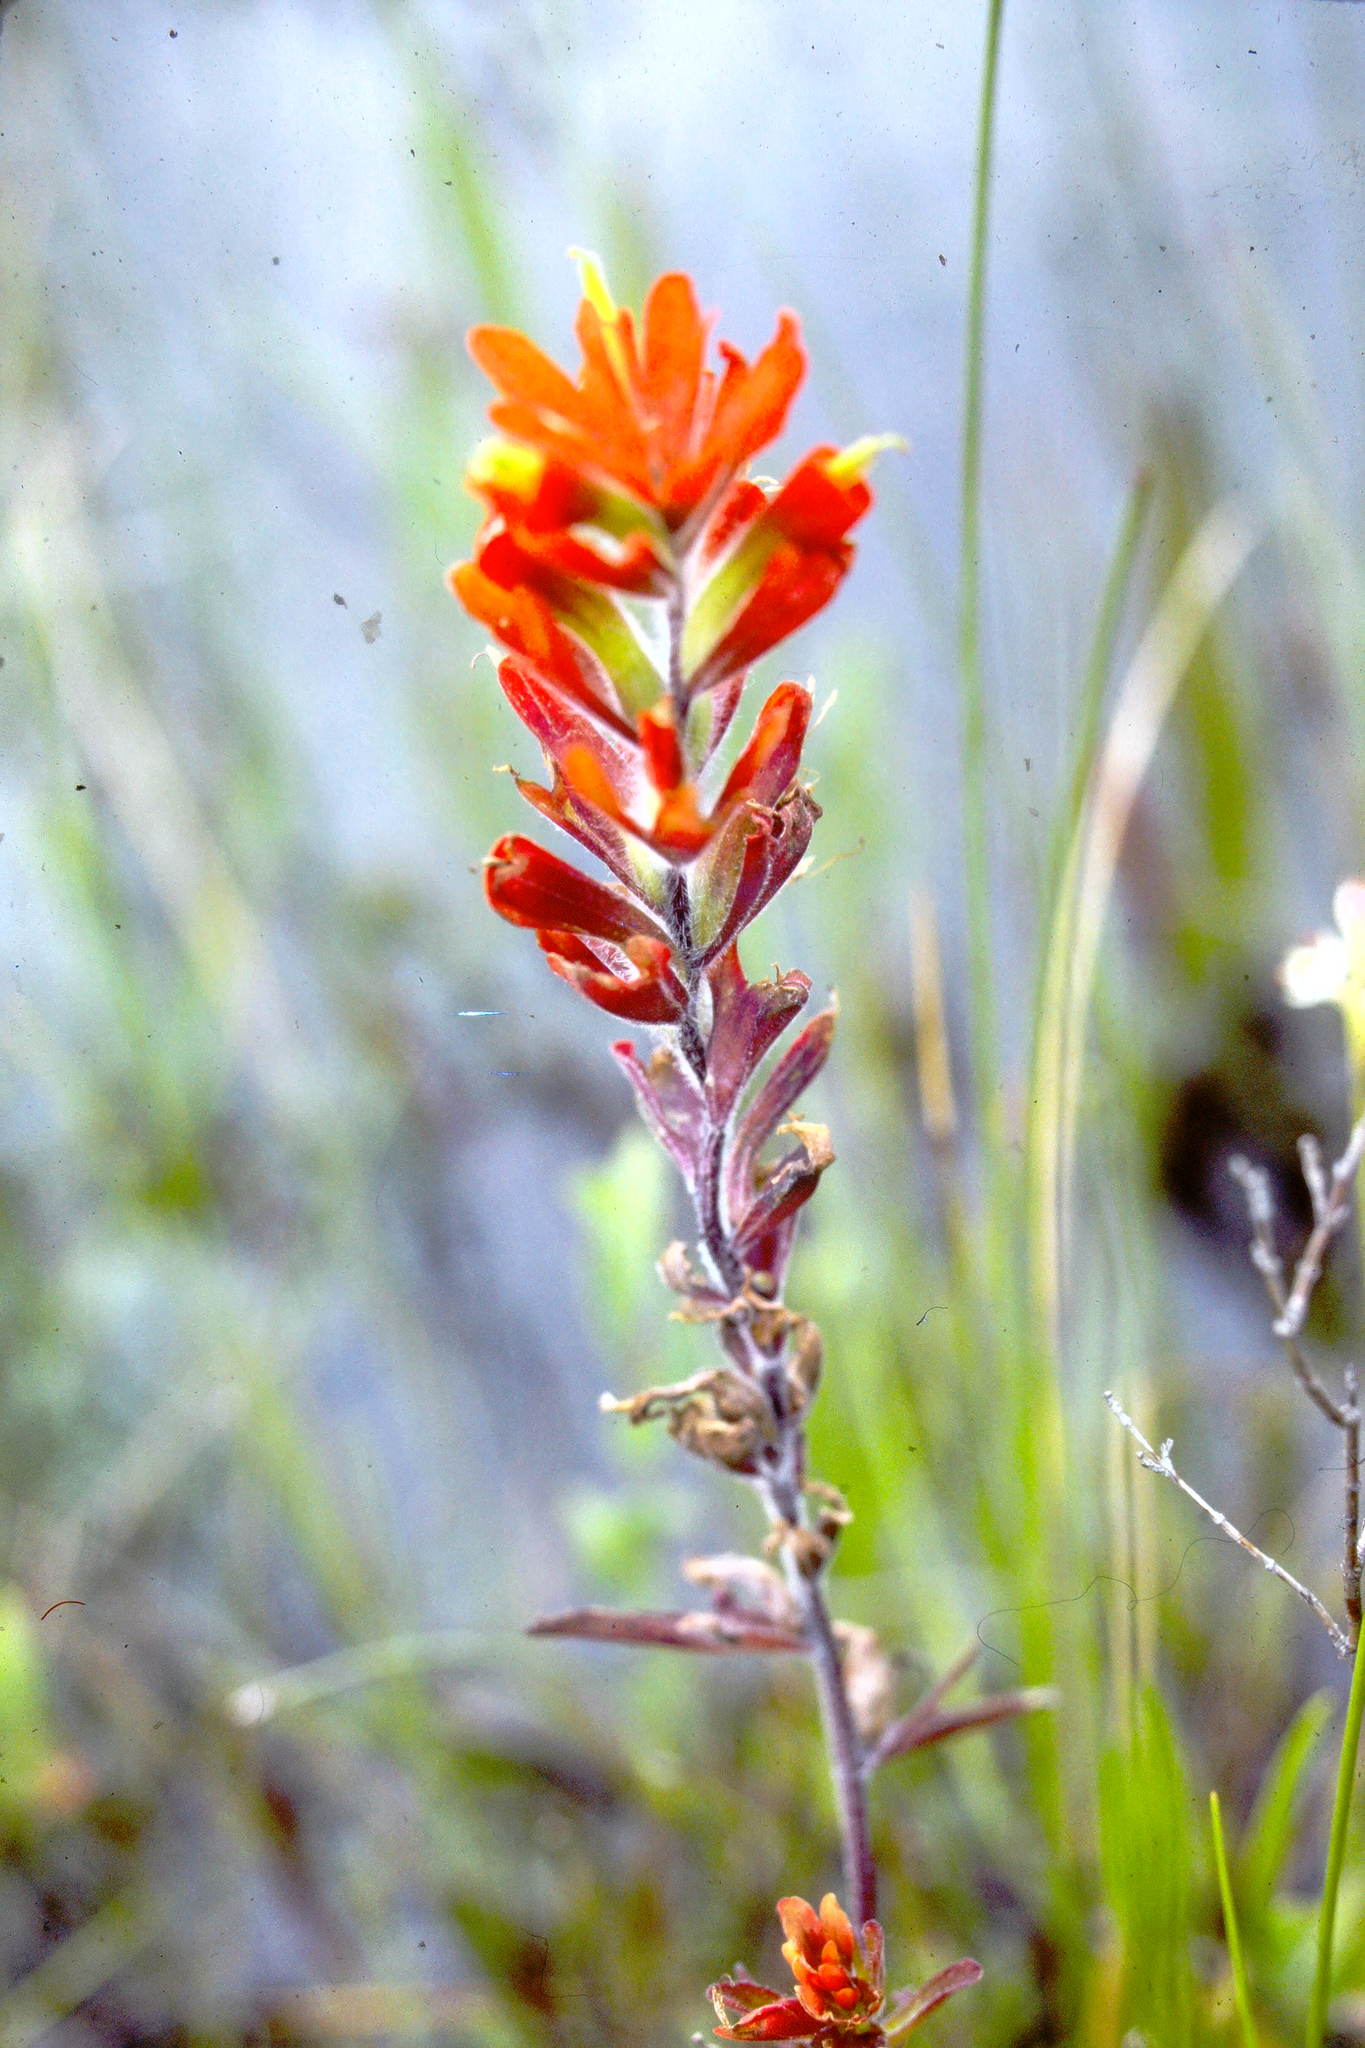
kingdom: Plantae
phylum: Tracheophyta
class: Magnoliopsida
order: Lamiales
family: Orobanchaceae
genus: Castilleja
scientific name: Castilleja coccinea
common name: Scarlet paintbrush
